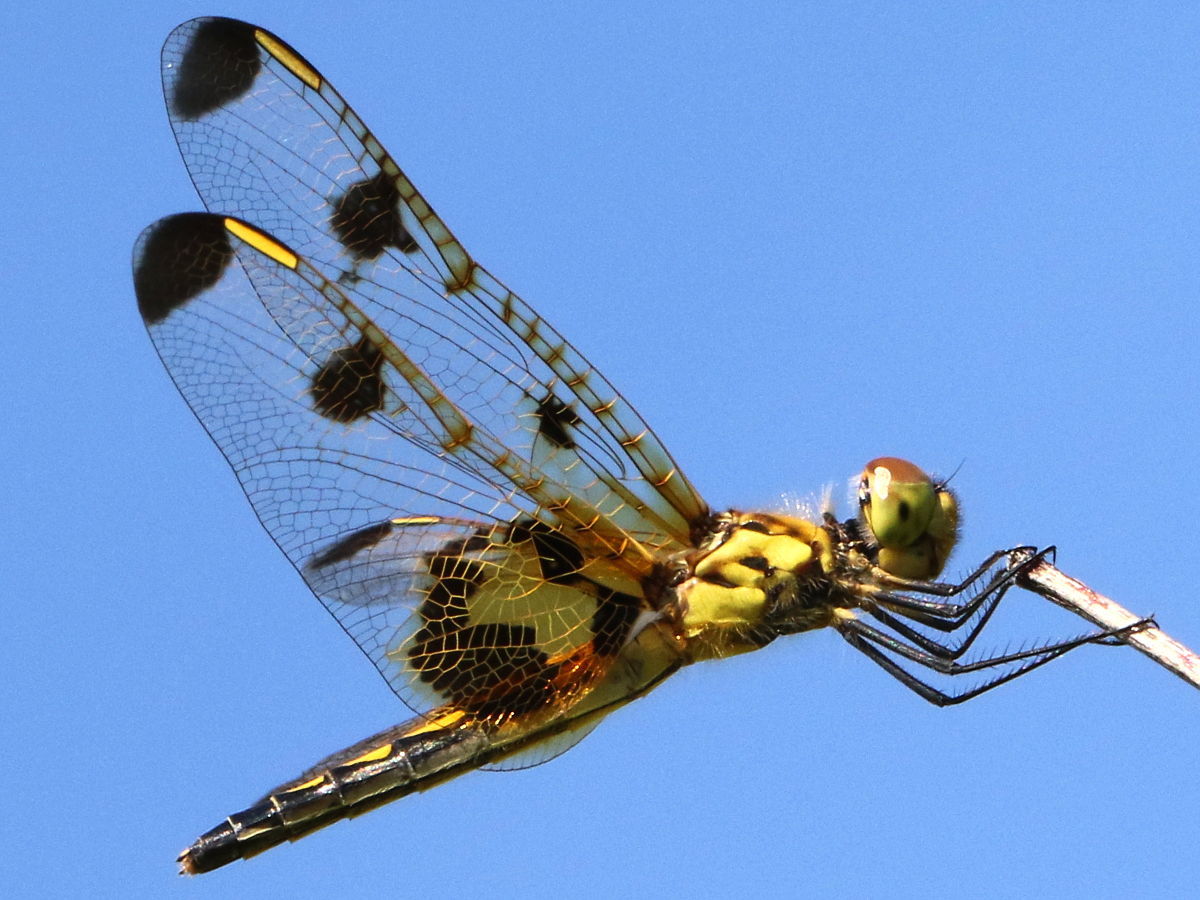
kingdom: Animalia
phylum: Arthropoda
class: Insecta
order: Odonata
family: Libellulidae
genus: Celithemis
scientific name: Celithemis elisa
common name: Calico pennant
